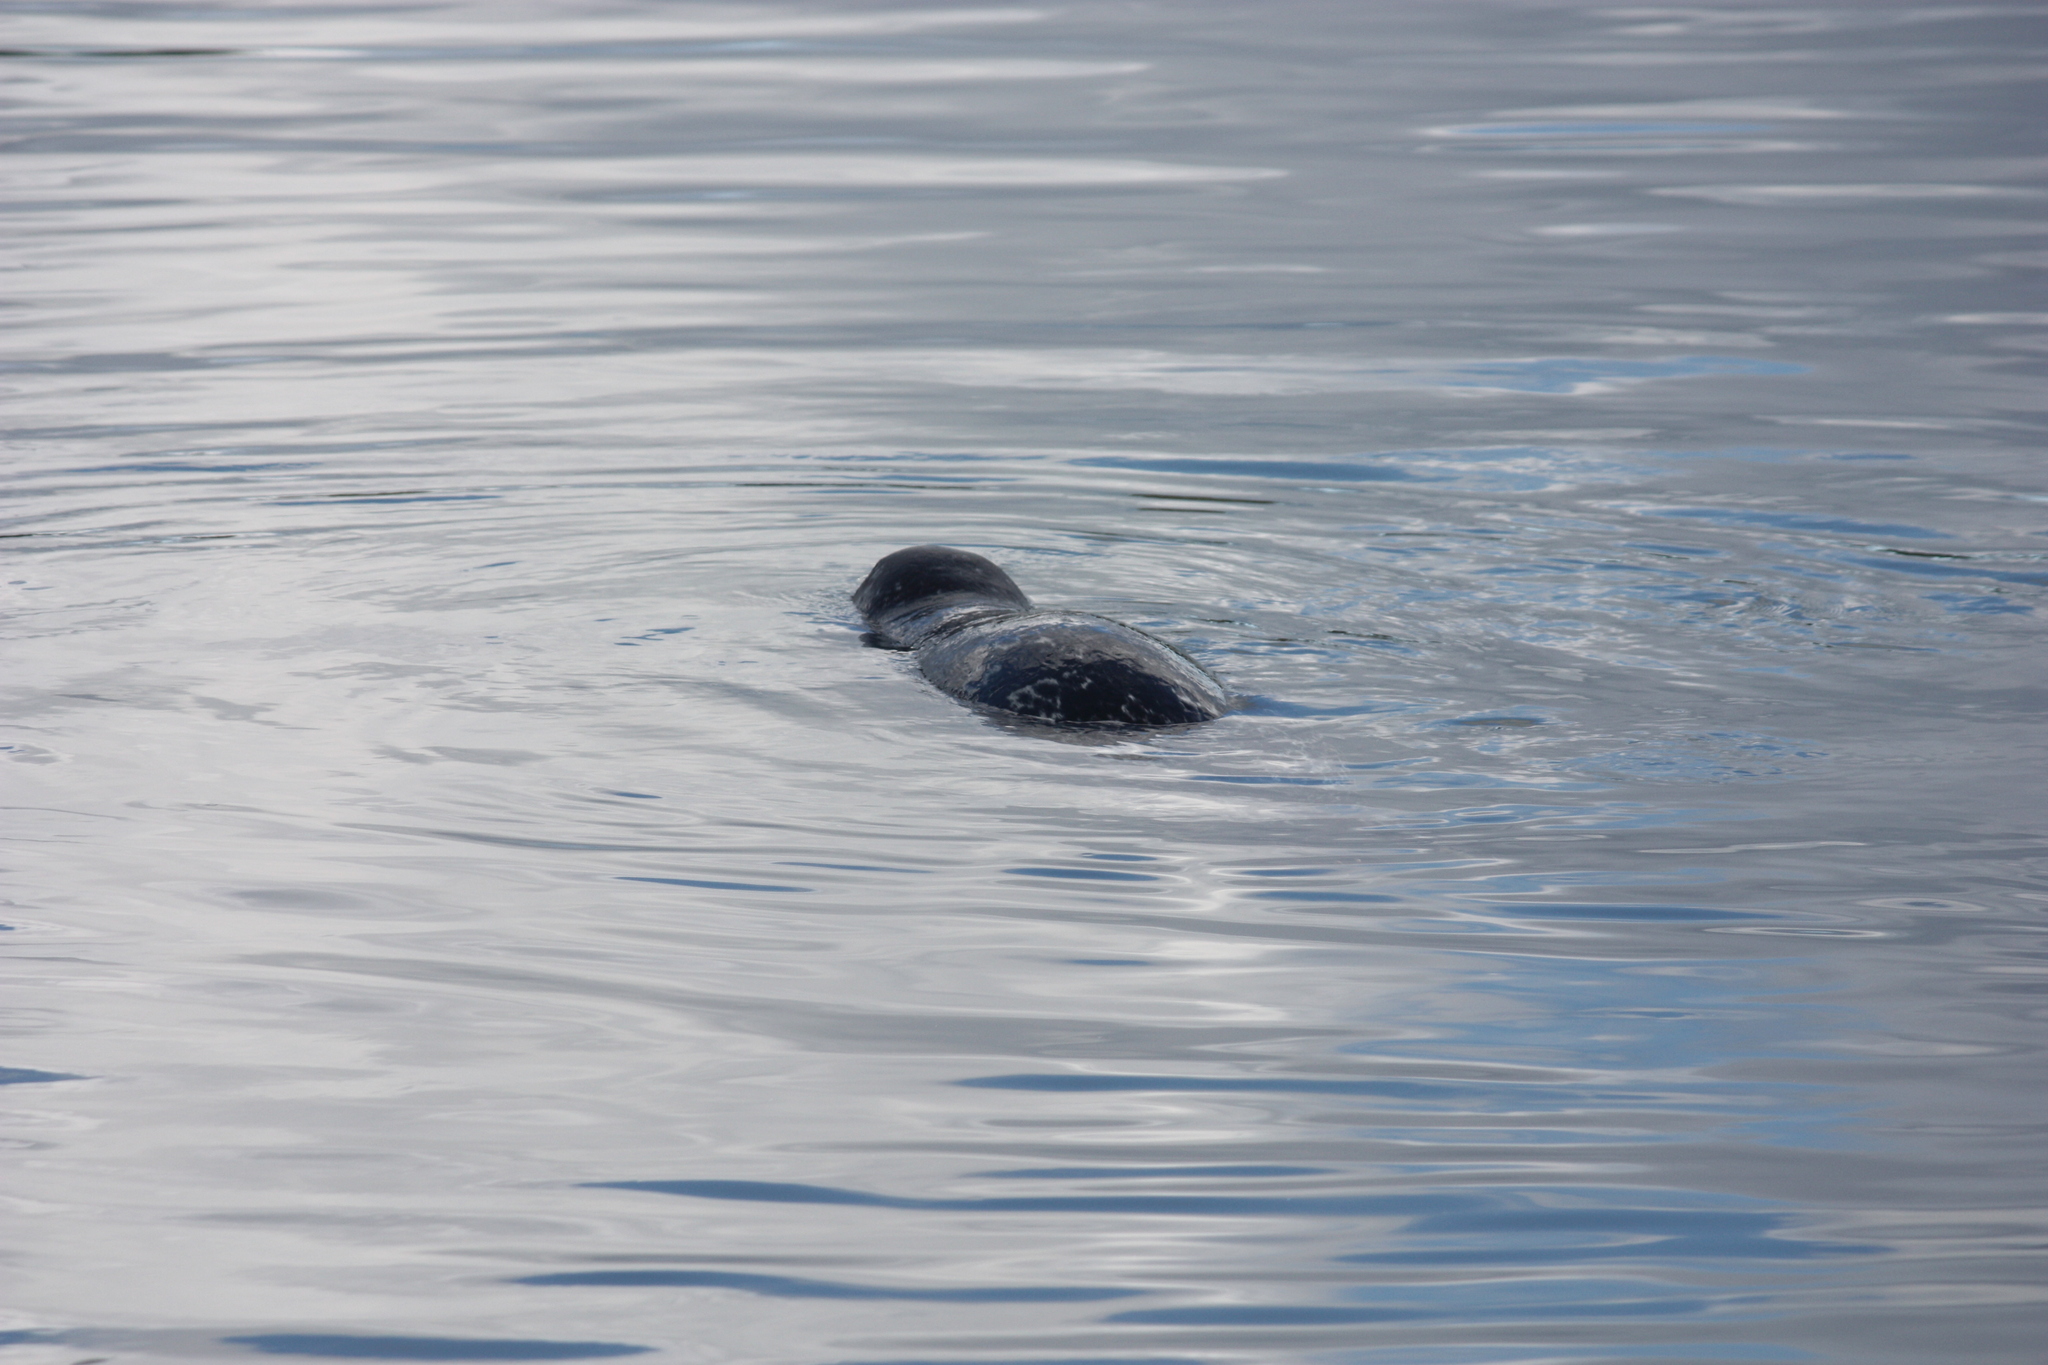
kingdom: Animalia
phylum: Chordata
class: Mammalia
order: Carnivora
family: Phocidae
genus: Phoca
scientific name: Phoca vitulina
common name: Harbor seal
